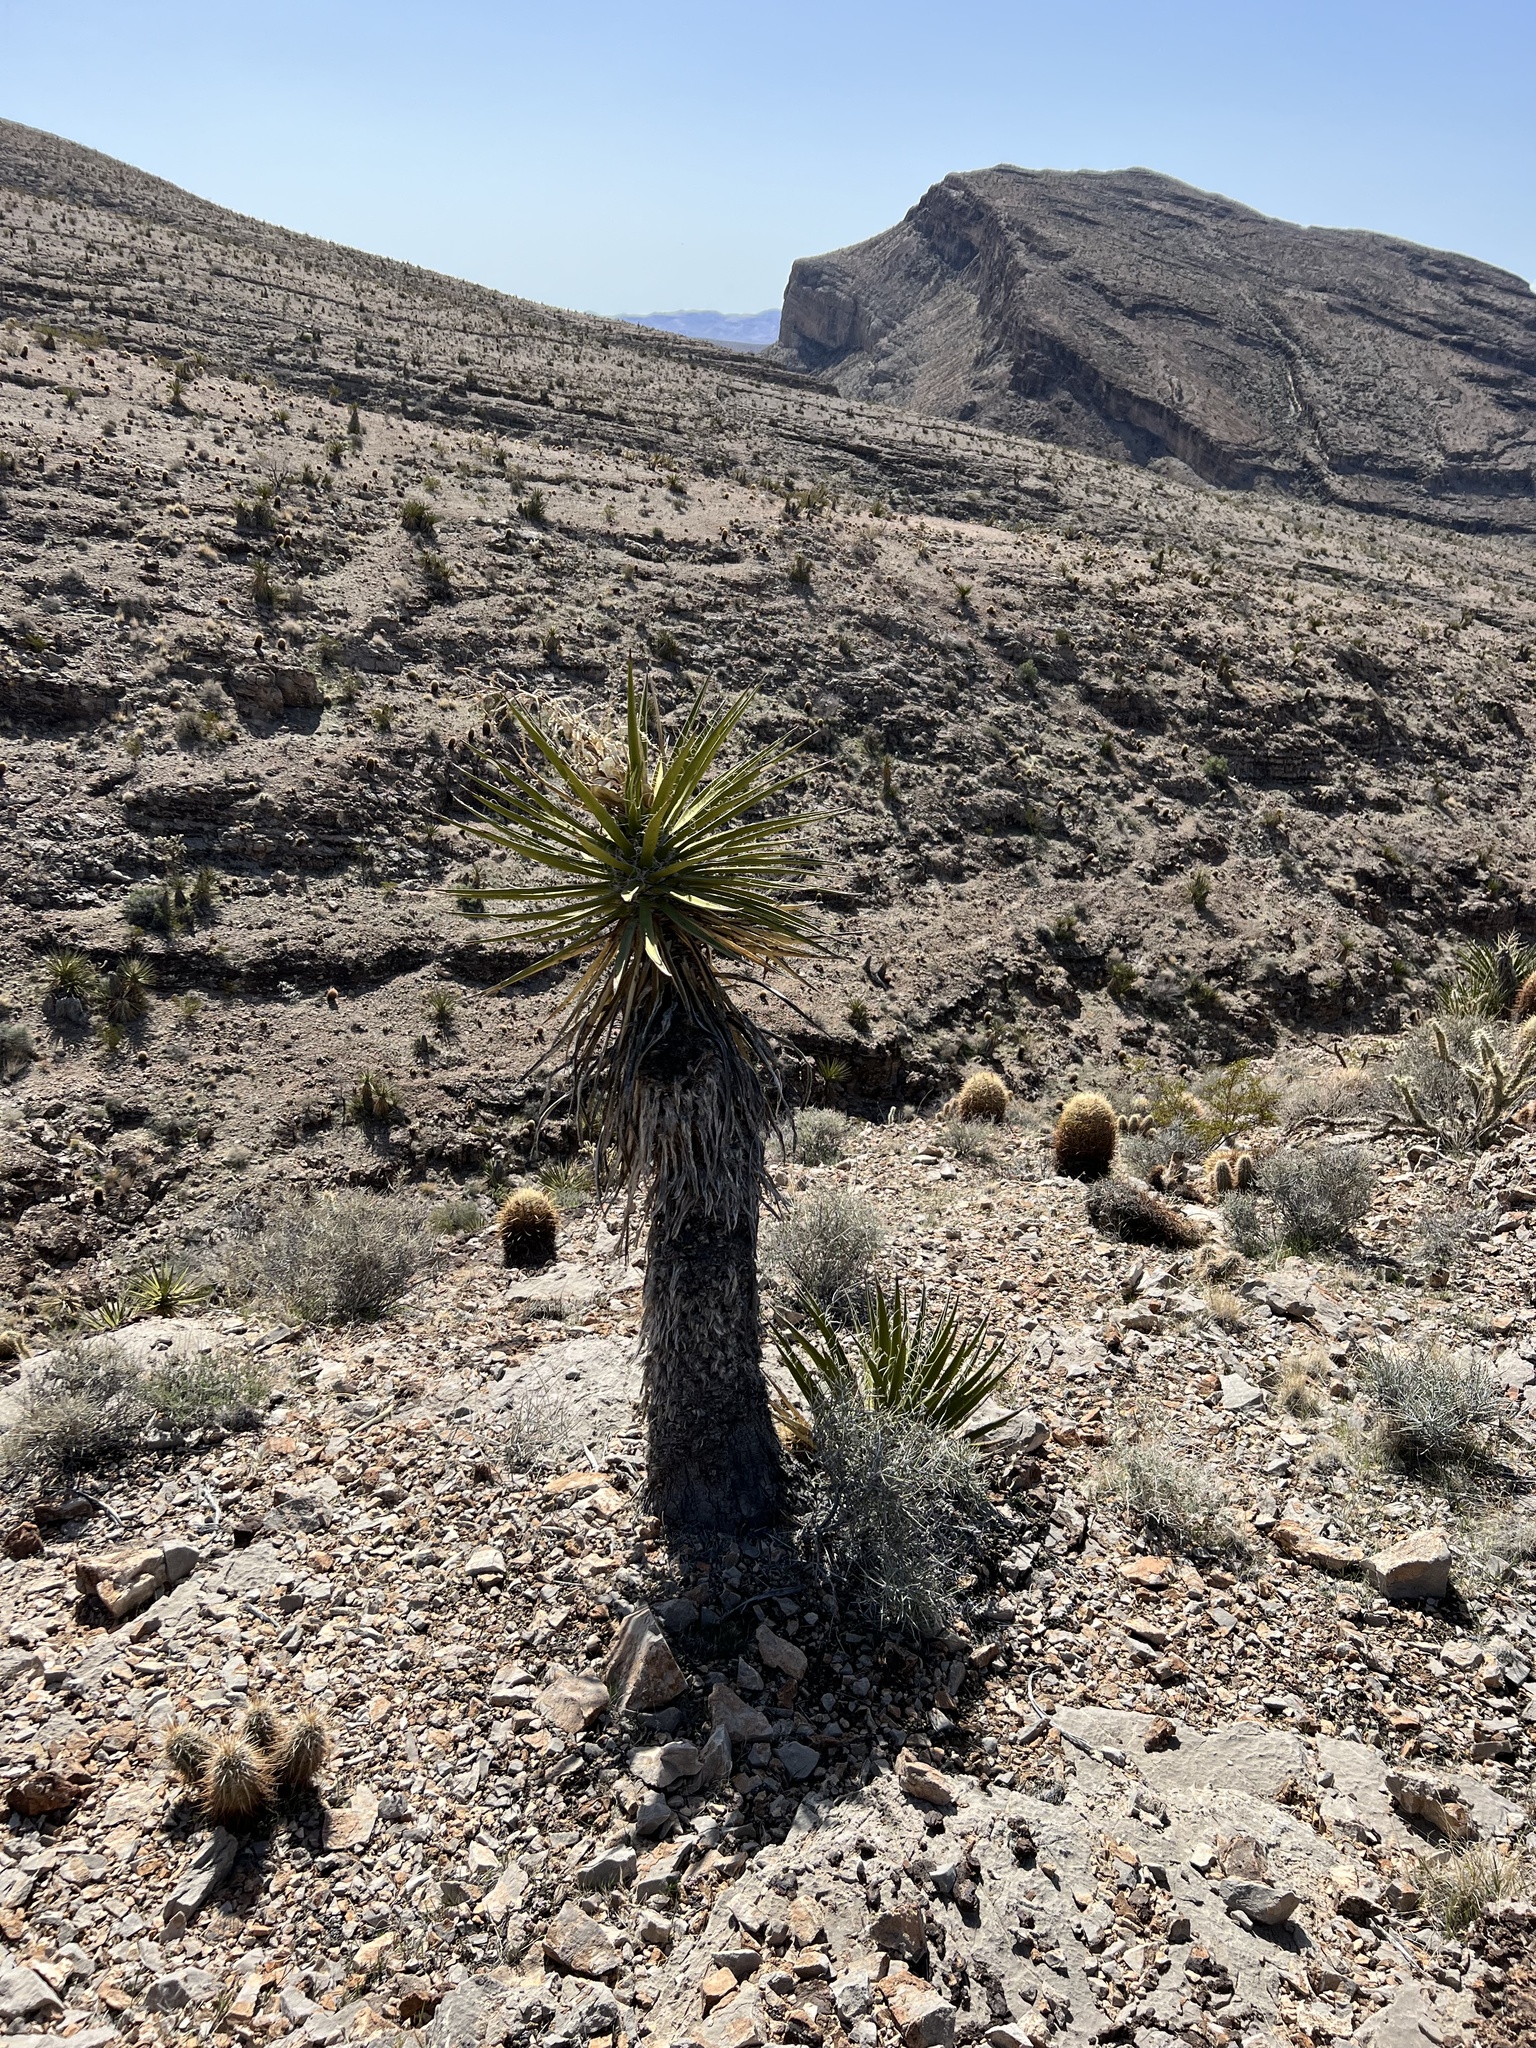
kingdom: Plantae
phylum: Tracheophyta
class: Liliopsida
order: Asparagales
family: Asparagaceae
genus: Yucca
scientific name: Yucca schidigera
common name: Mojave yucca
